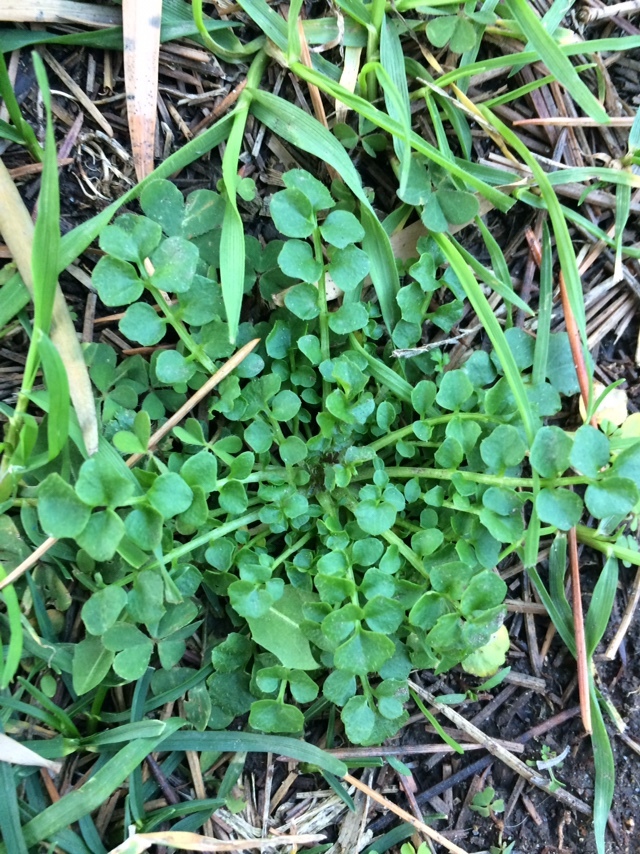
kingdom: Plantae
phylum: Tracheophyta
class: Magnoliopsida
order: Brassicales
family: Brassicaceae
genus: Cardamine
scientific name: Cardamine hirsuta
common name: Hairy bittercress
